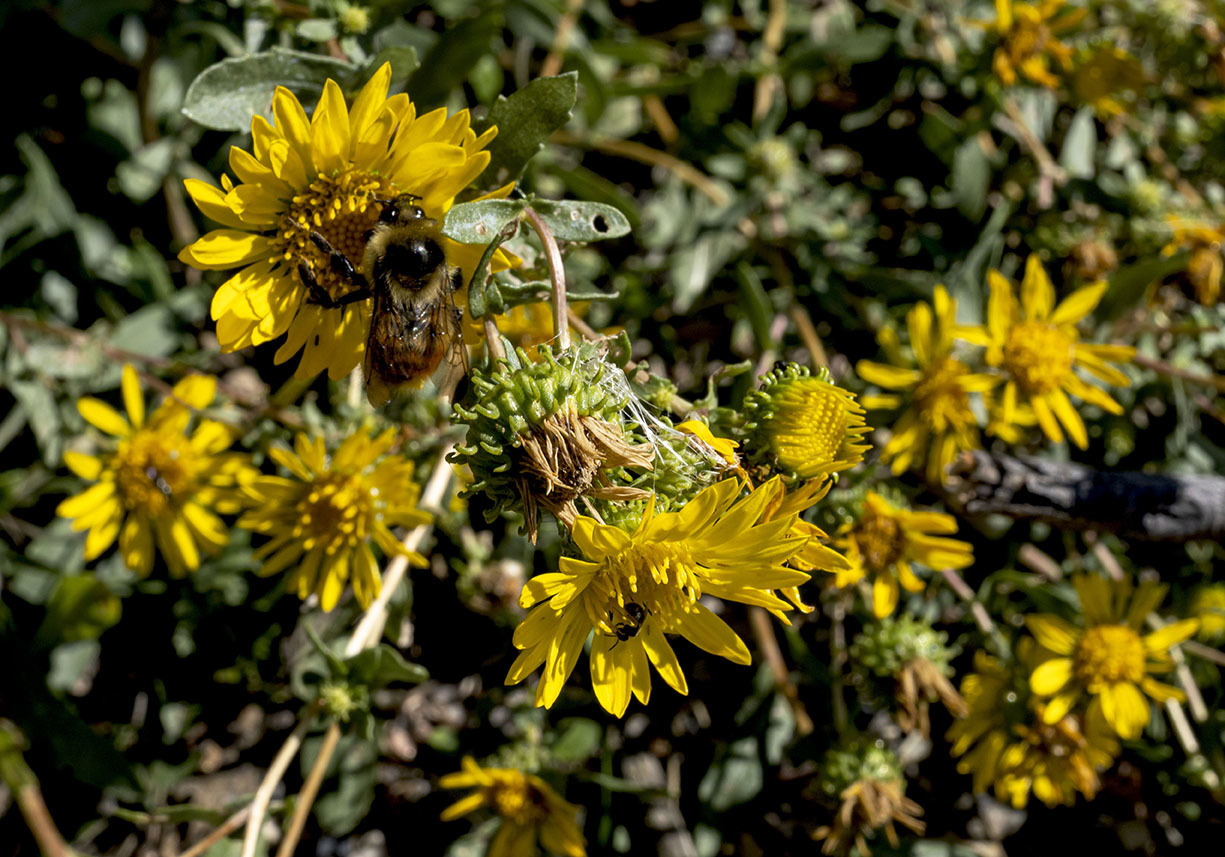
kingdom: Animalia
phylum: Arthropoda
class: Insecta
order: Hymenoptera
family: Apidae
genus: Bombus
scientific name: Bombus rufocinctus
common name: Red-belted bumble bee
